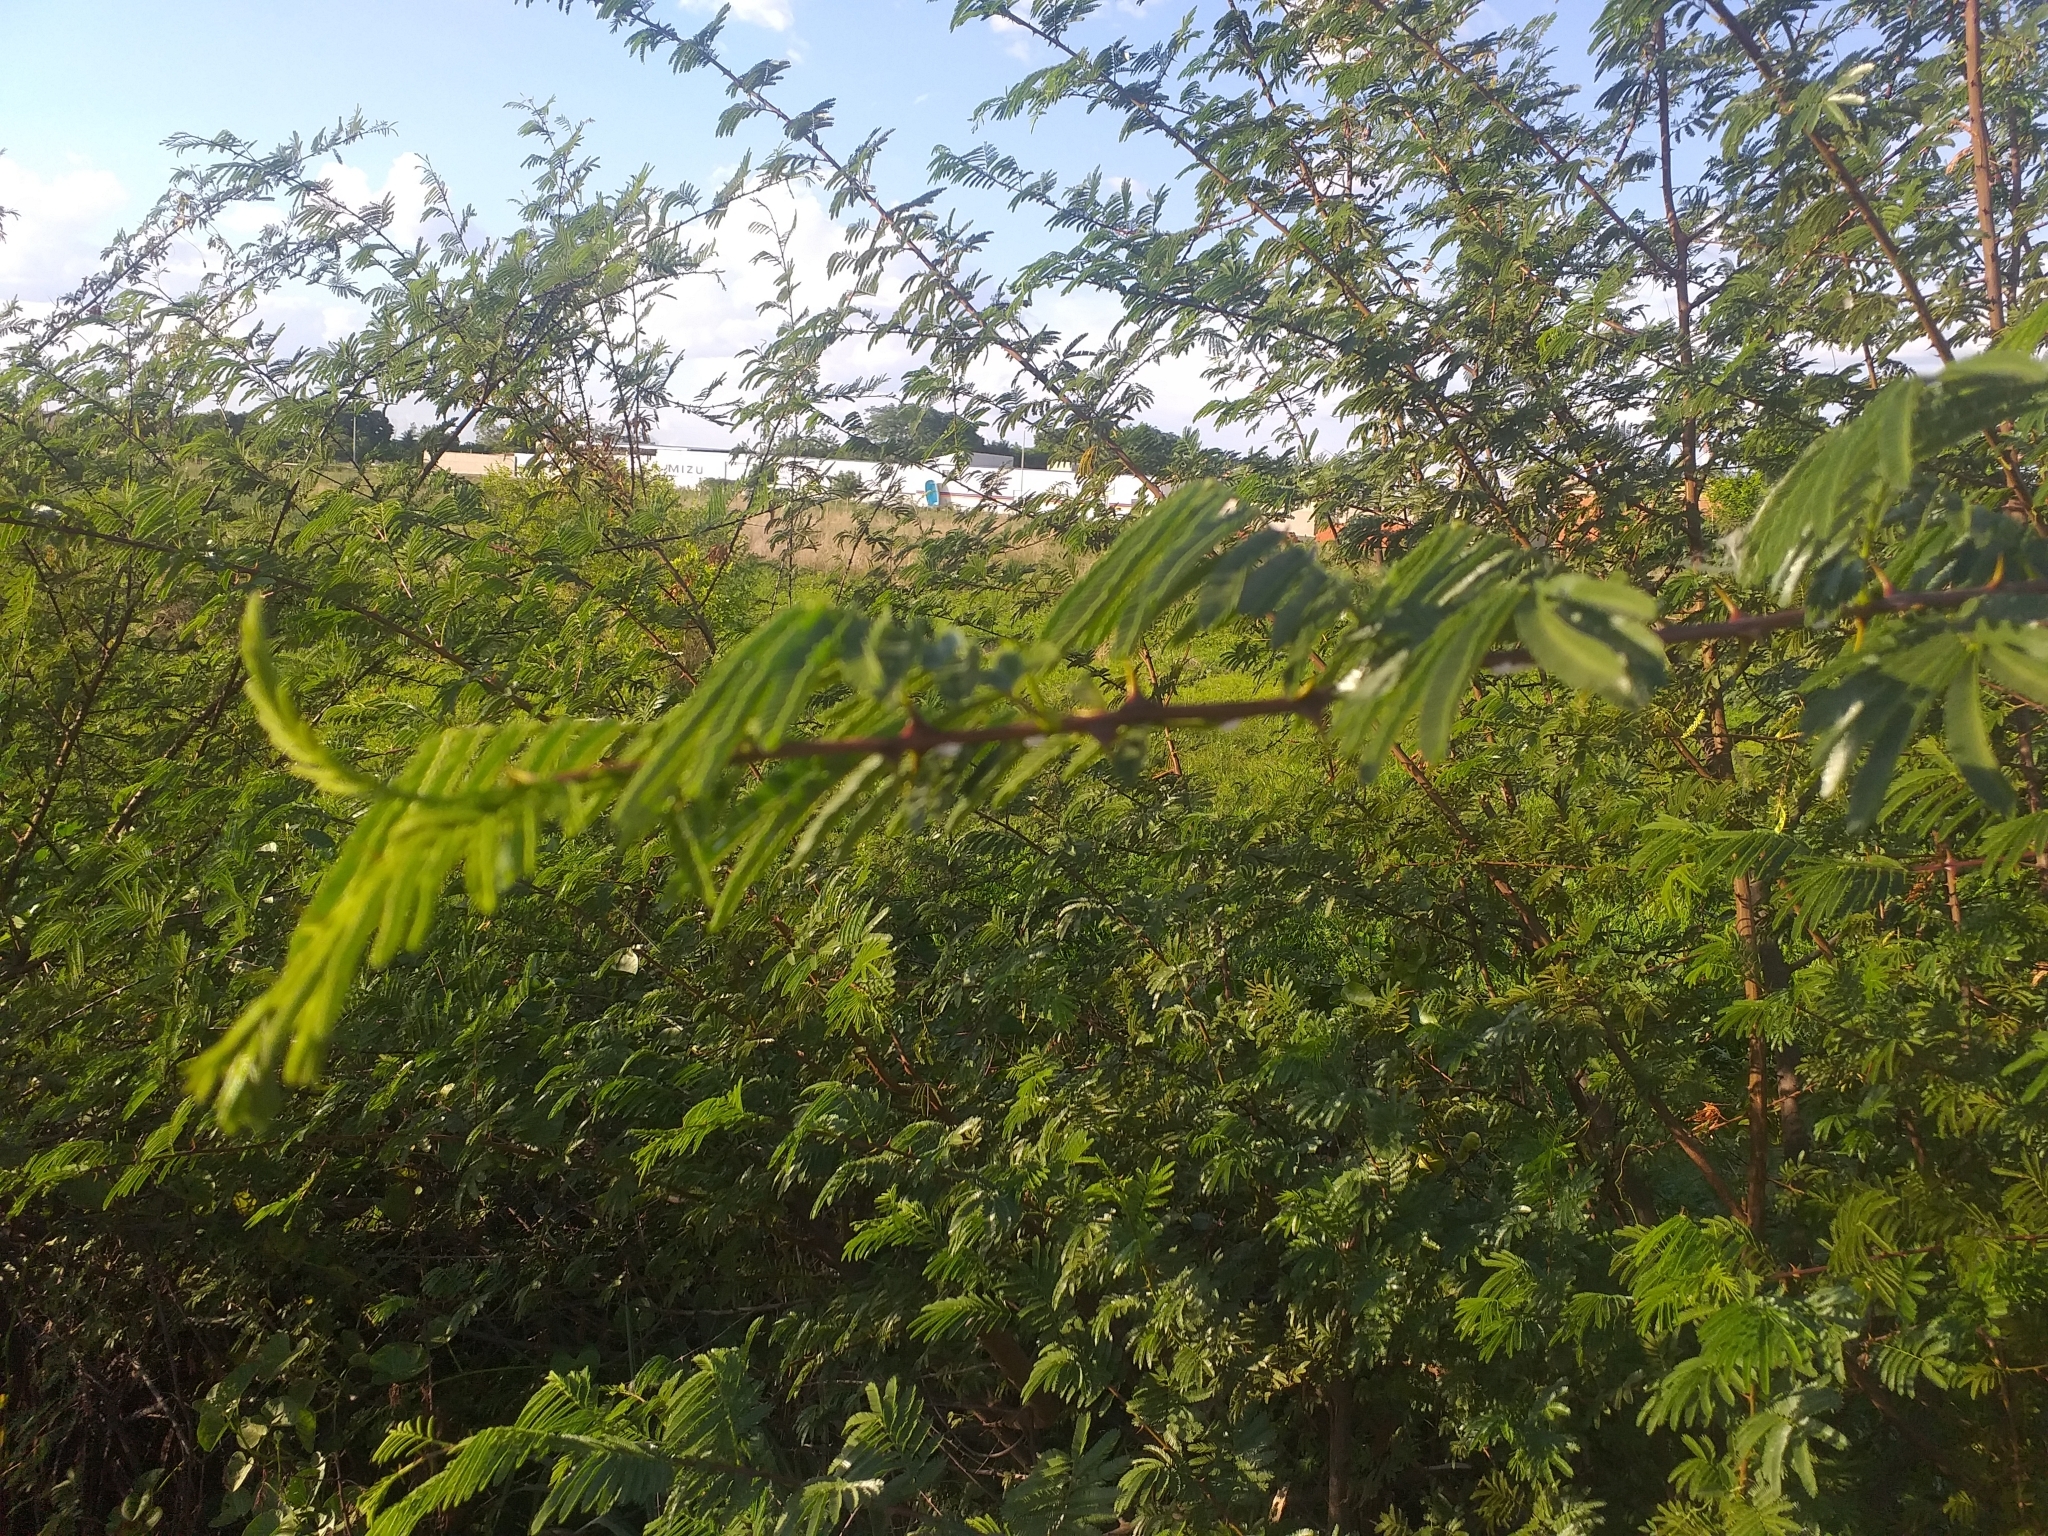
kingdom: Plantae
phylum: Tracheophyta
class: Magnoliopsida
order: Fabales
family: Fabaceae
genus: Mimosa
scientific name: Mimosa tenuiflora
